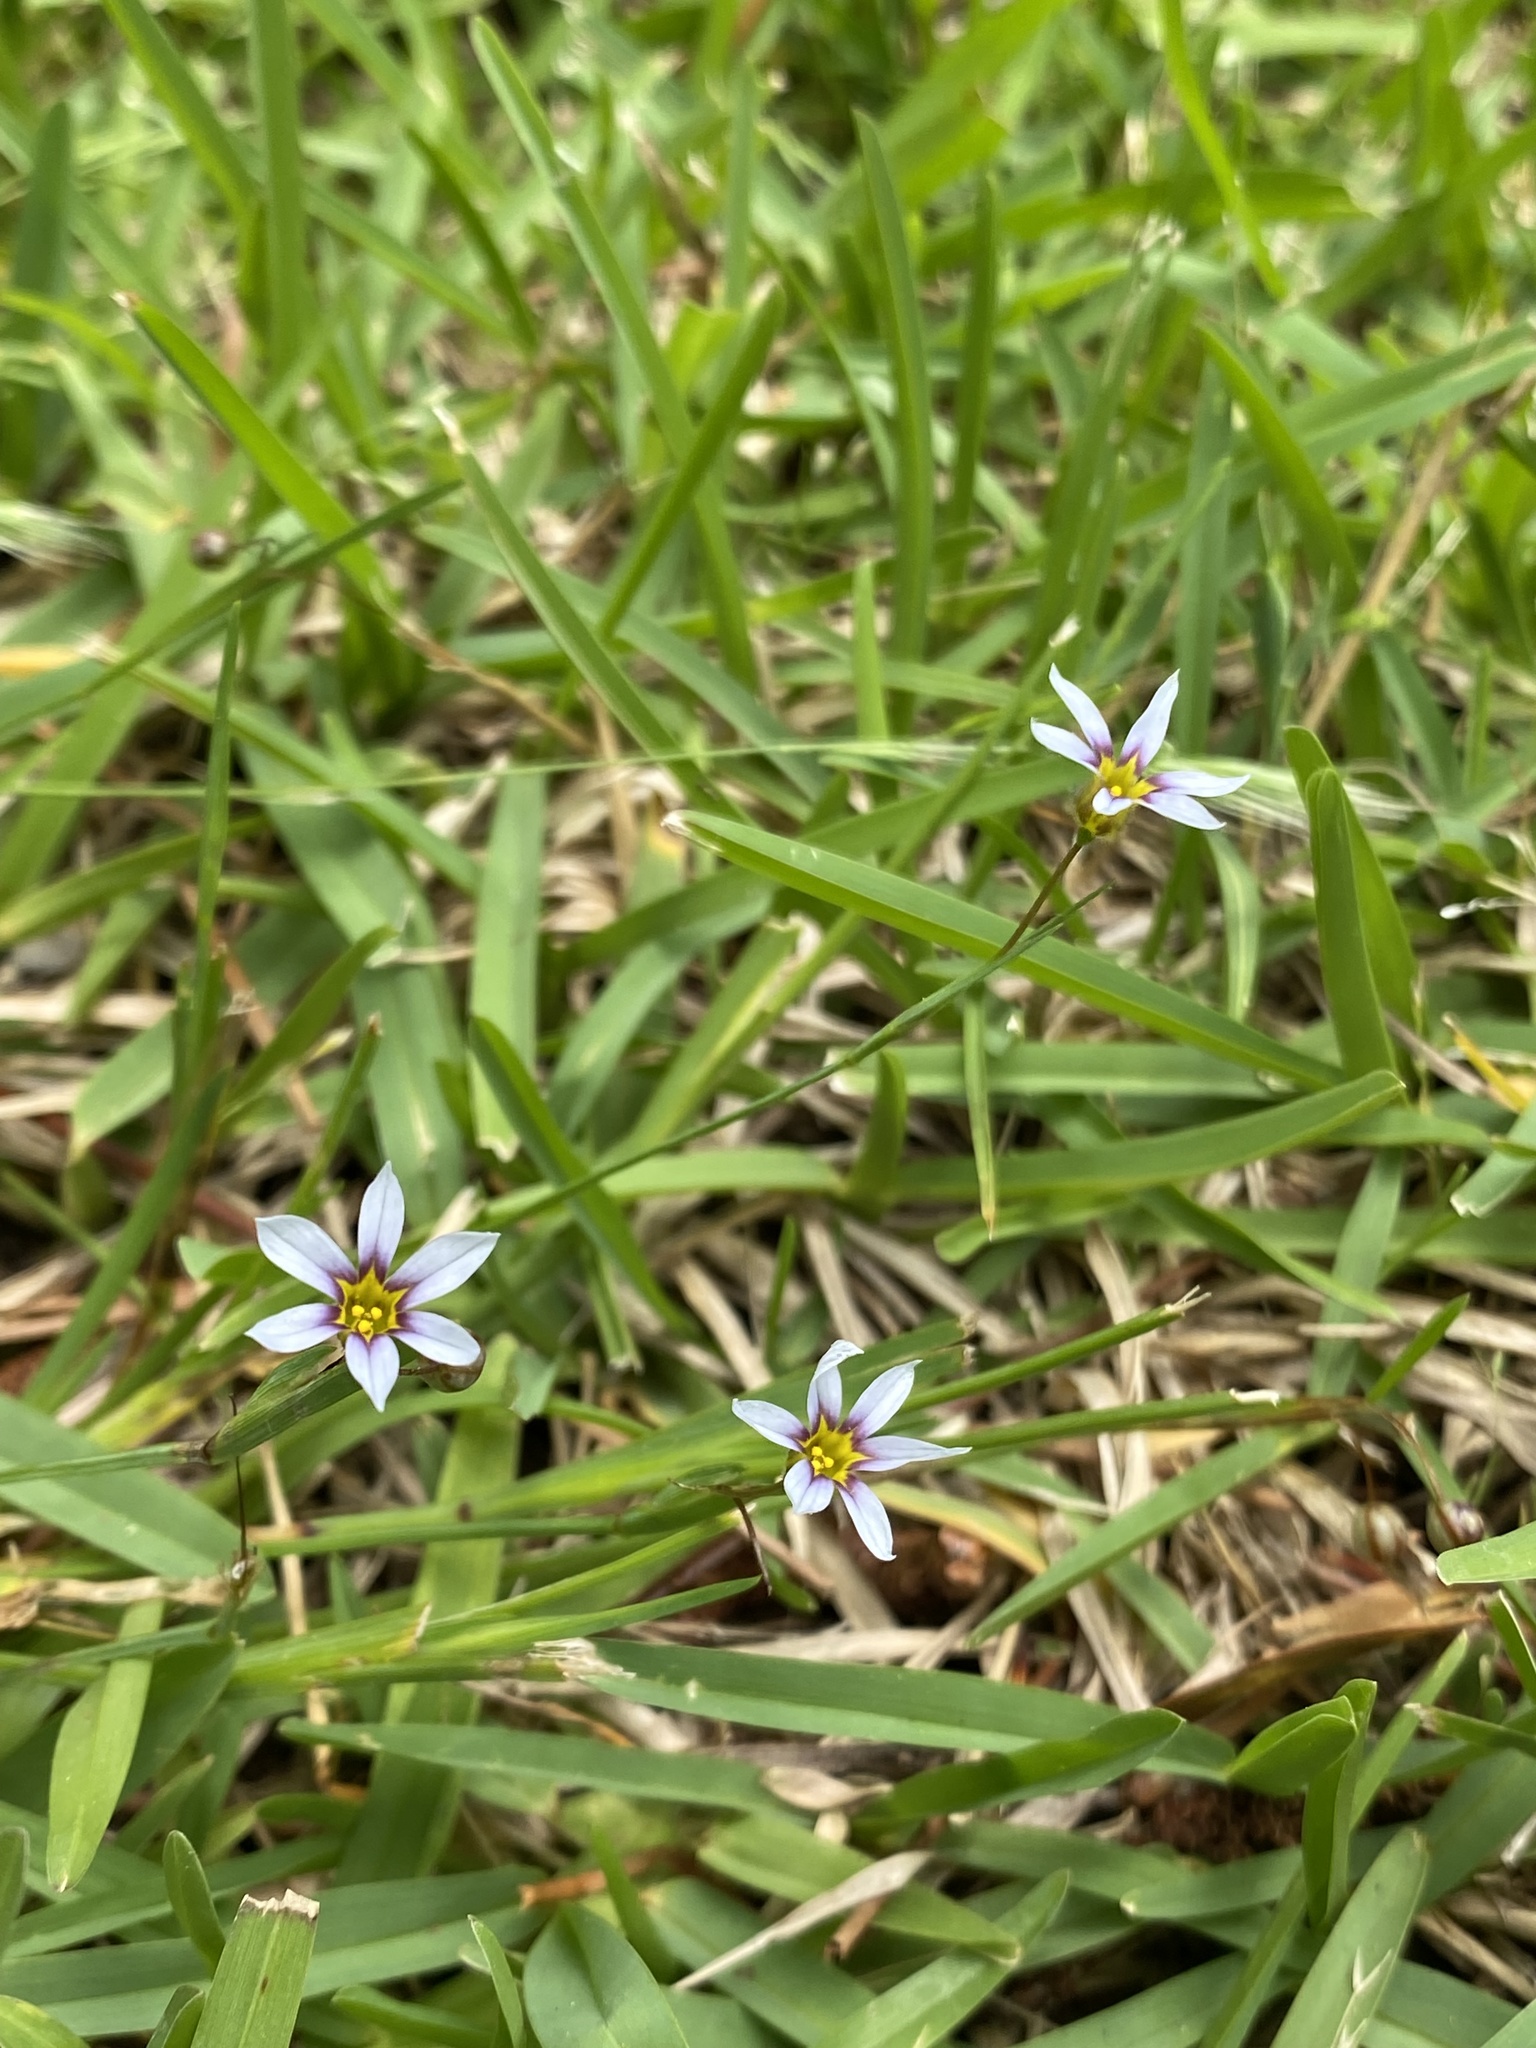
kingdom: Plantae
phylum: Tracheophyta
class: Liliopsida
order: Asparagales
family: Iridaceae
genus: Sisyrinchium
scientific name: Sisyrinchium micranthum
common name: Bermuda pigroot
